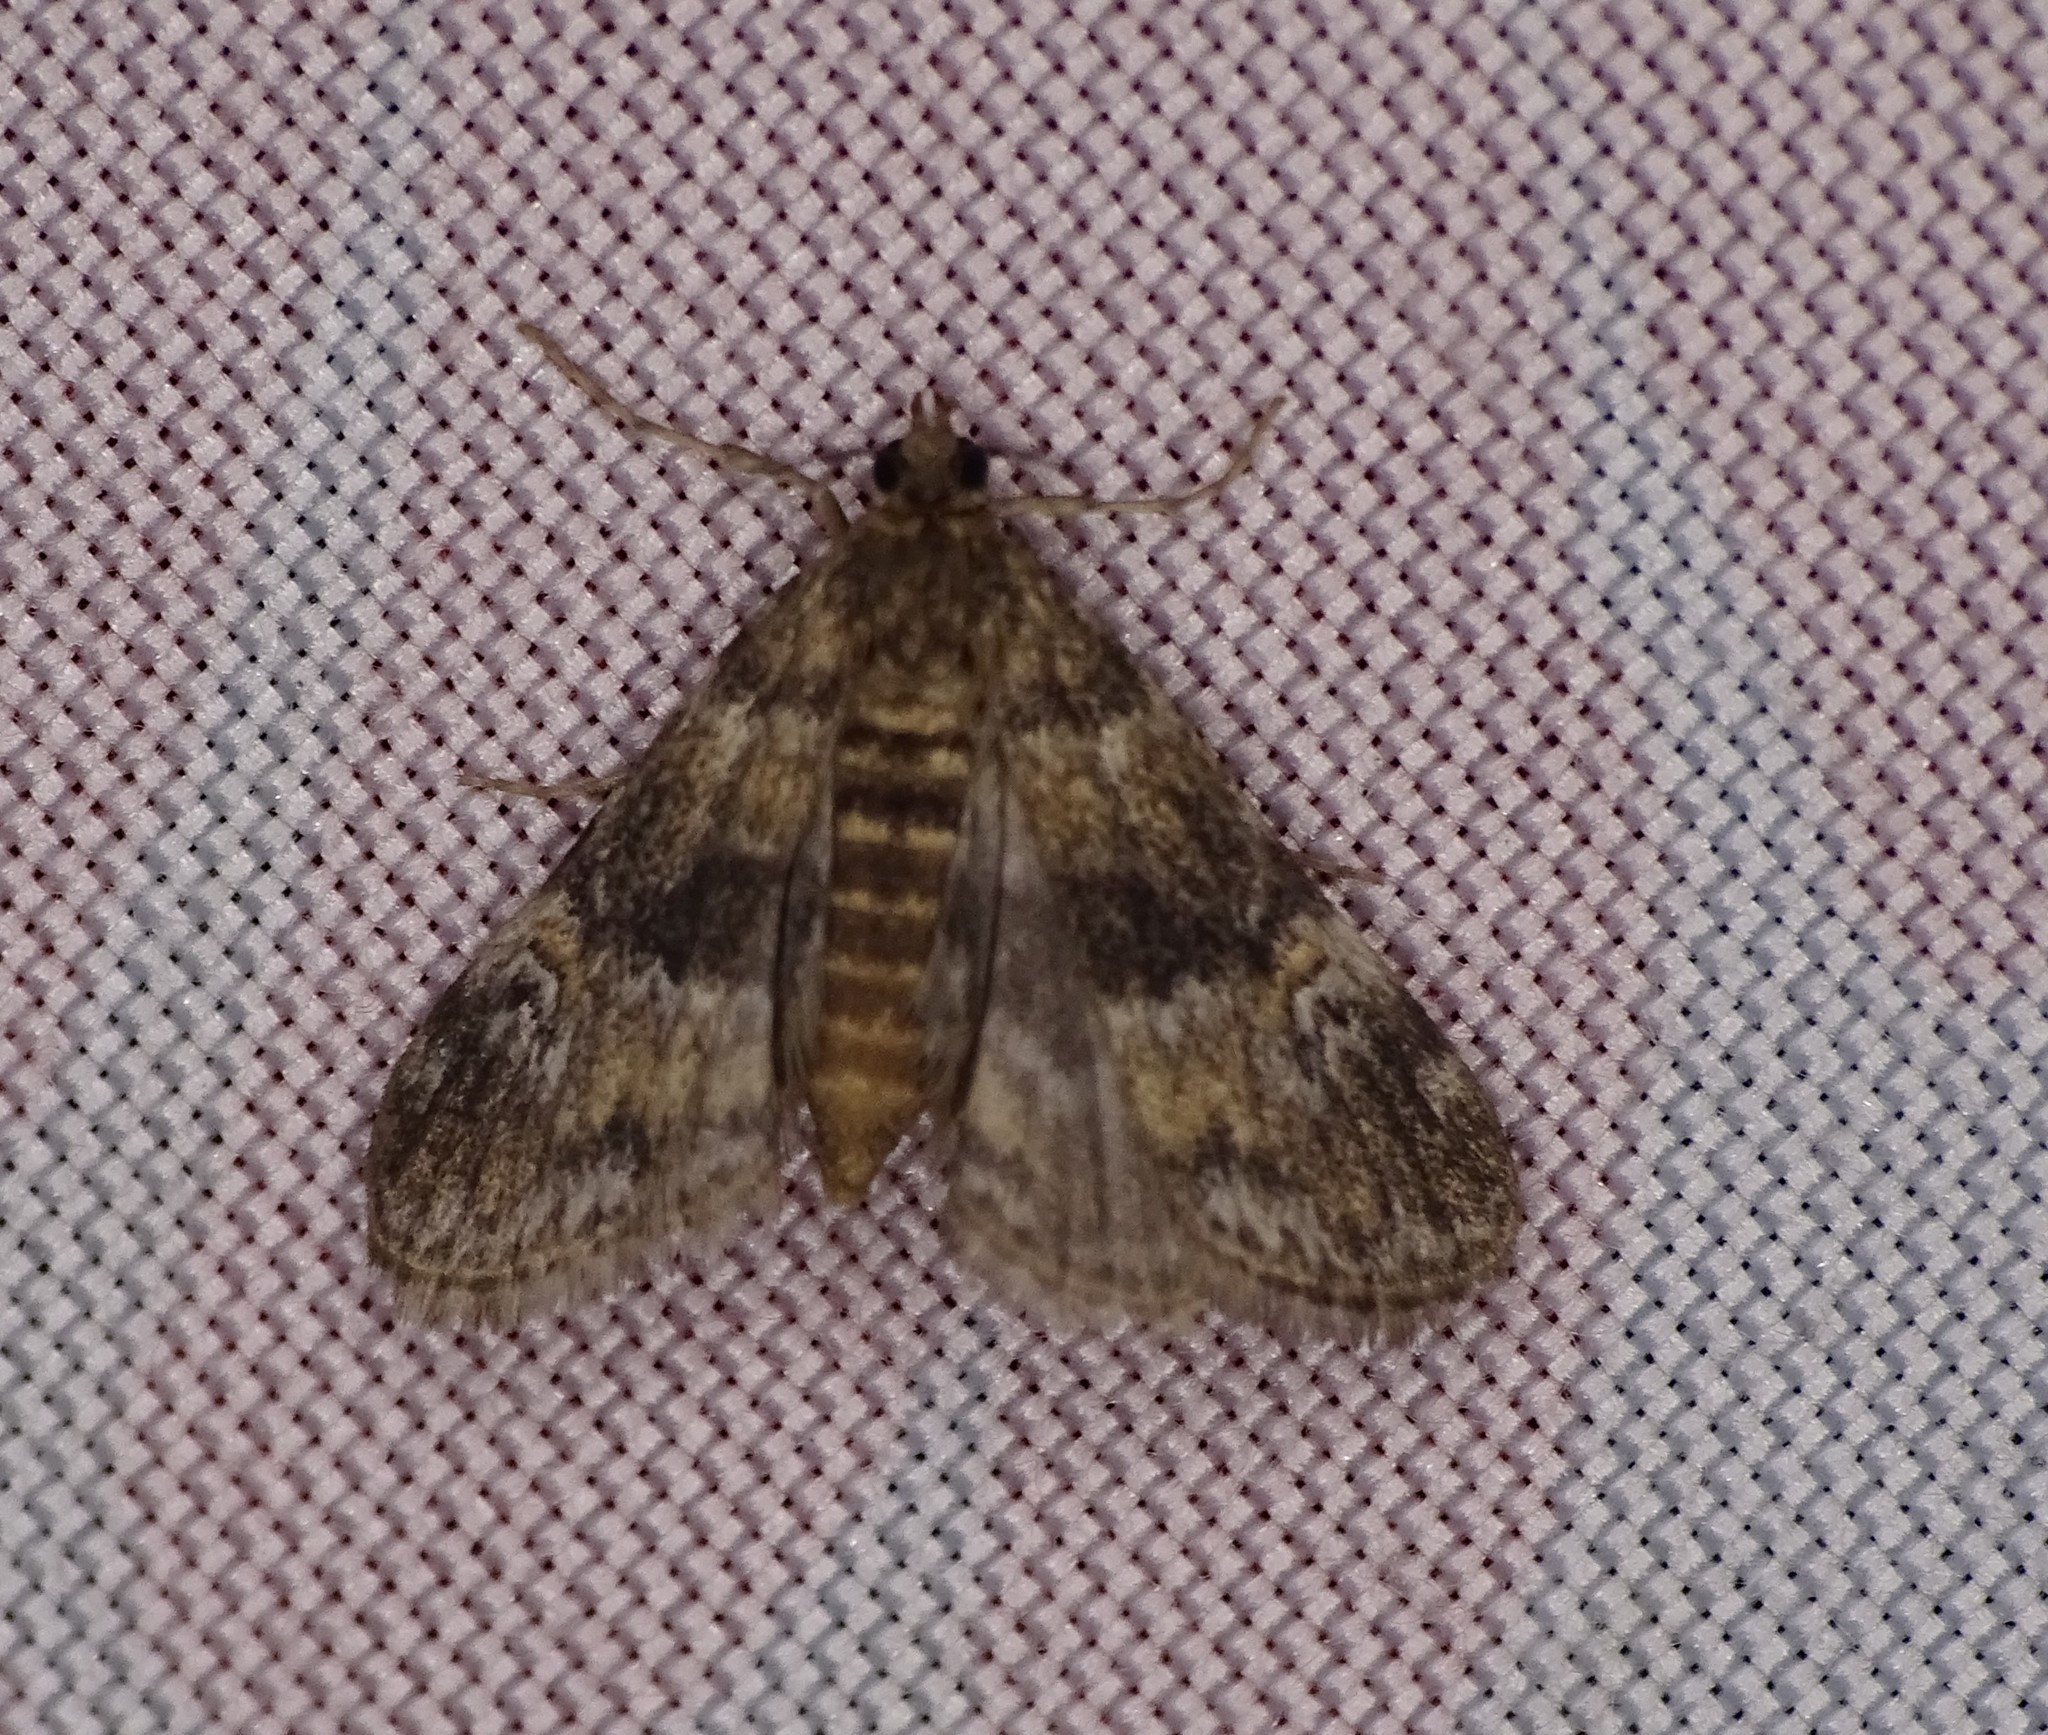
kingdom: Animalia
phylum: Arthropoda
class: Insecta
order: Lepidoptera
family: Crambidae
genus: Elophila
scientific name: Elophila obliteralis
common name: Waterlily leafcutter moth
